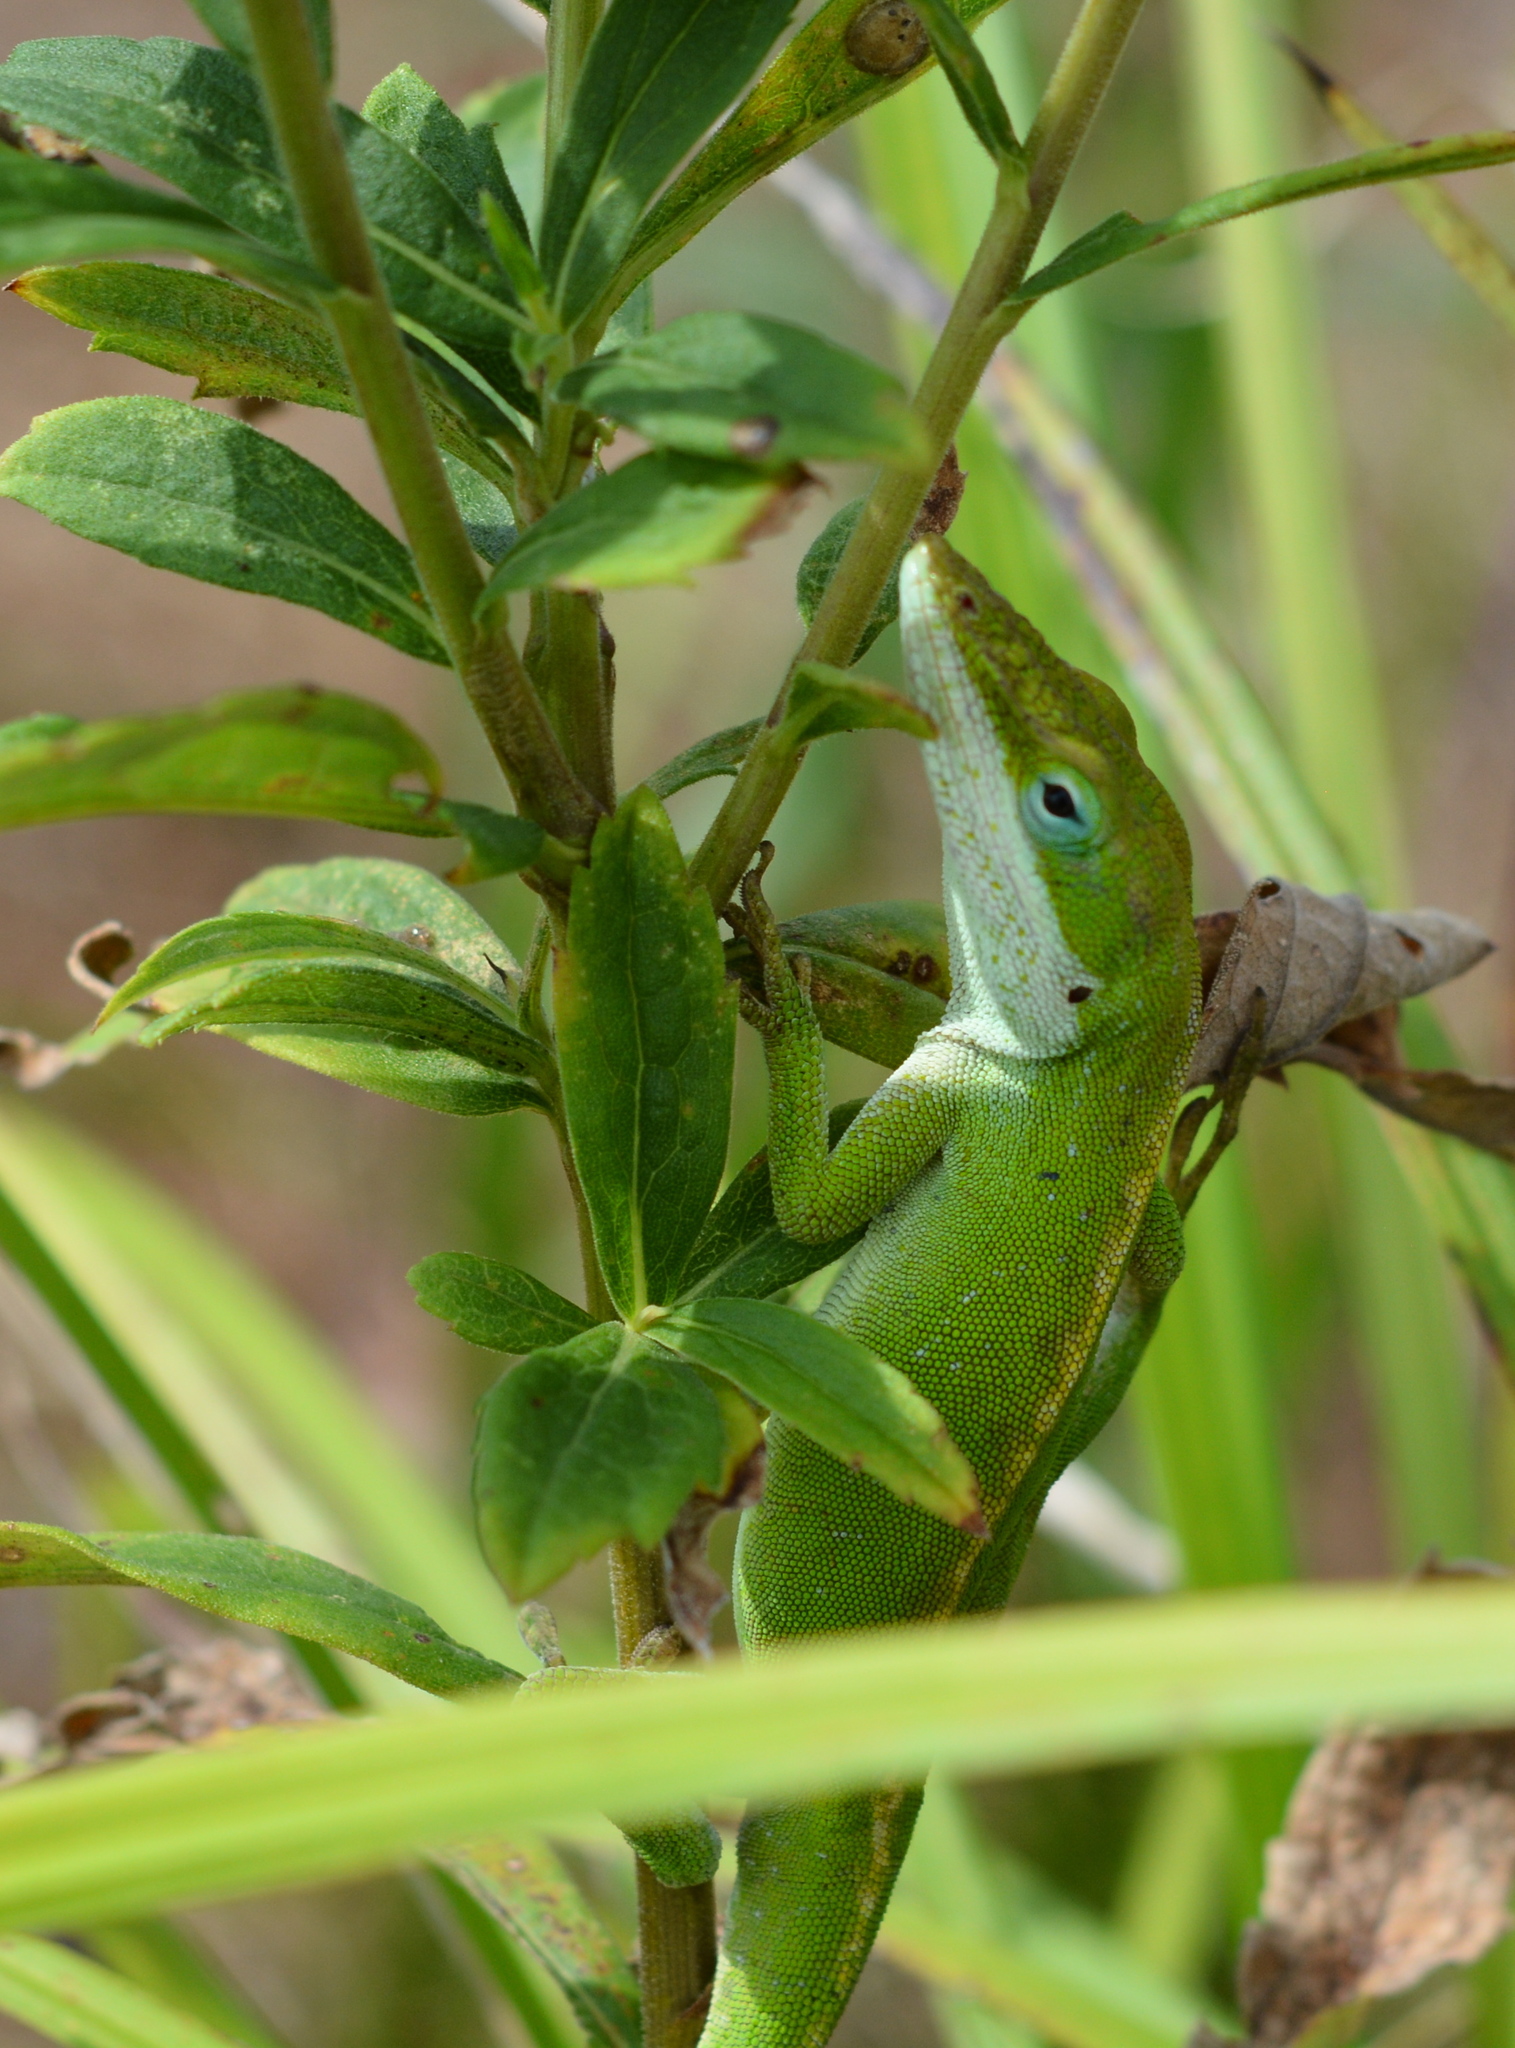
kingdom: Animalia
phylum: Chordata
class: Squamata
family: Dactyloidae
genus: Anolis
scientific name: Anolis carolinensis
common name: Green anole
